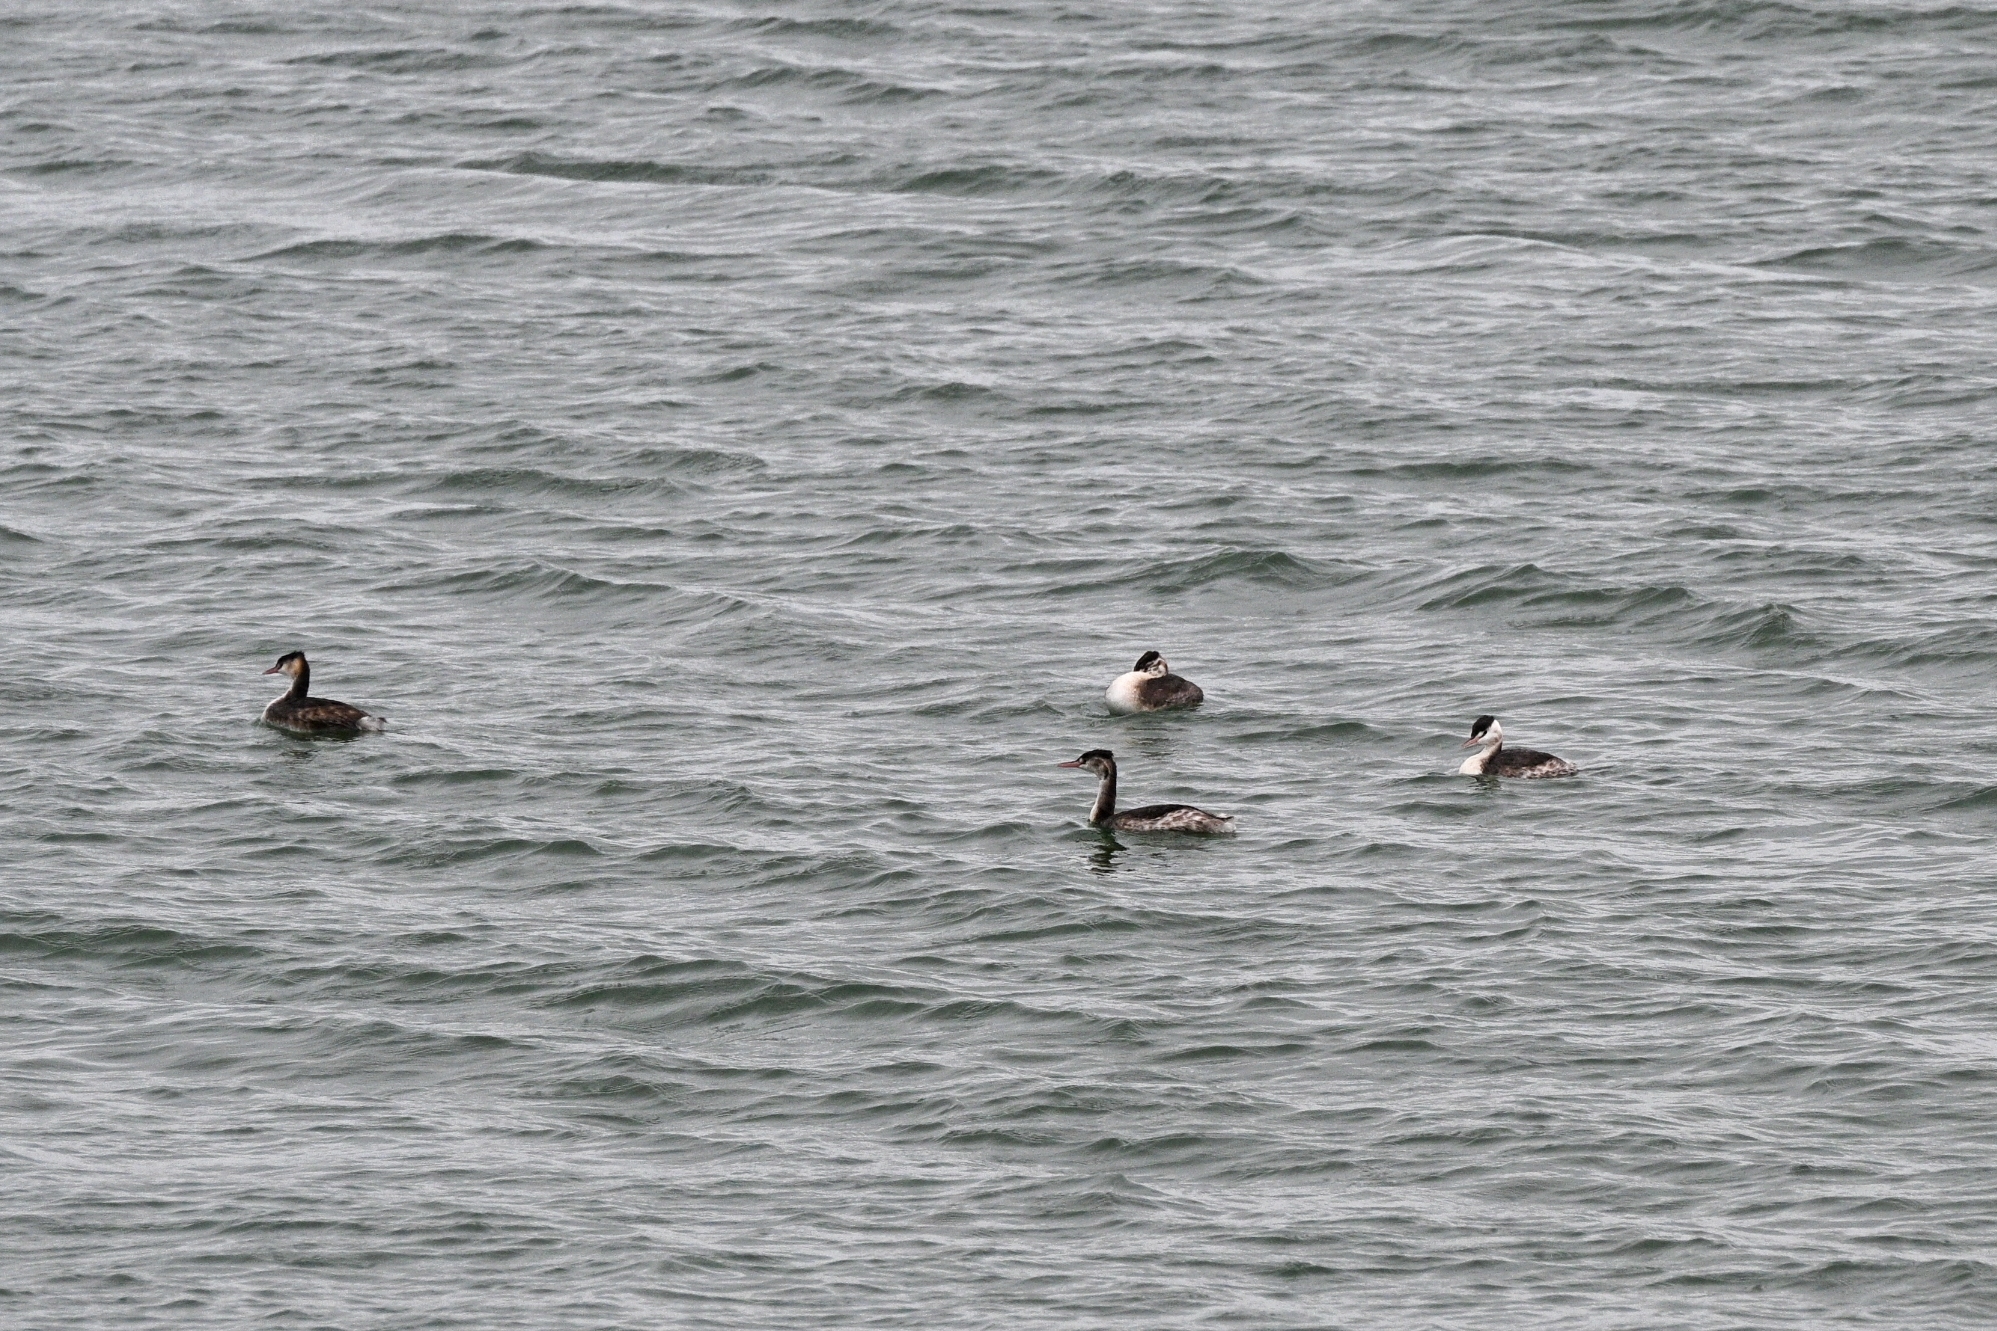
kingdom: Animalia
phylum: Chordata
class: Aves
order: Podicipediformes
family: Podicipedidae
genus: Podiceps
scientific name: Podiceps cristatus
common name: Great crested grebe
